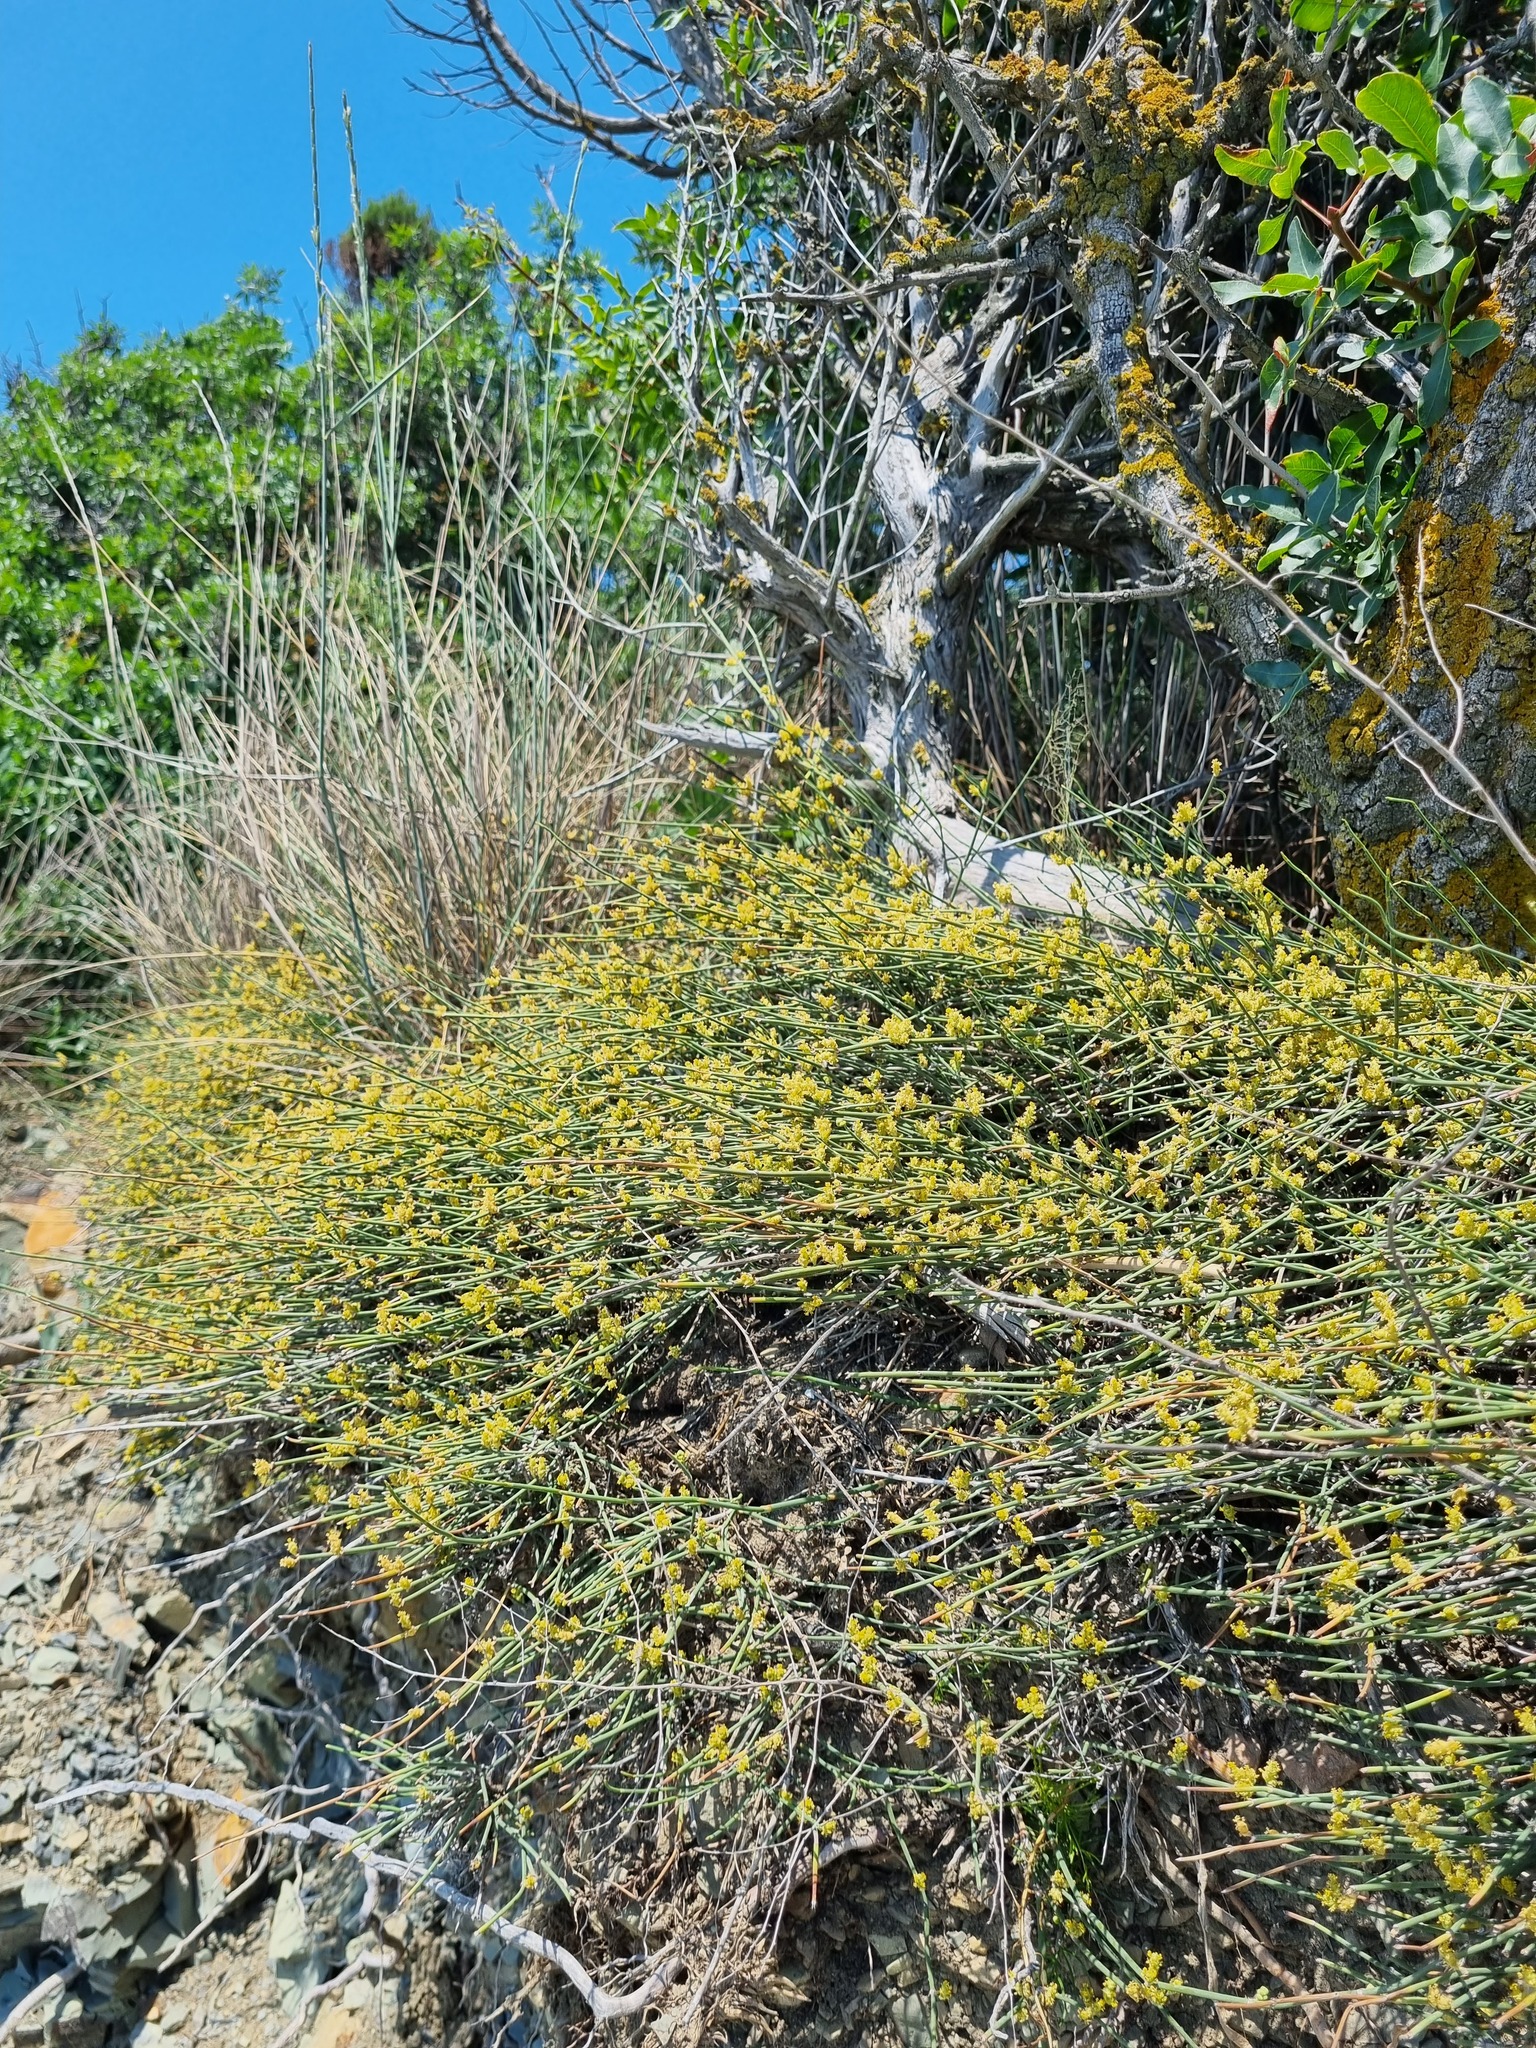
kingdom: Plantae
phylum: Tracheophyta
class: Gnetopsida
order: Ephedrales
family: Ephedraceae
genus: Ephedra
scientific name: Ephedra distachya
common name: Sea grape
